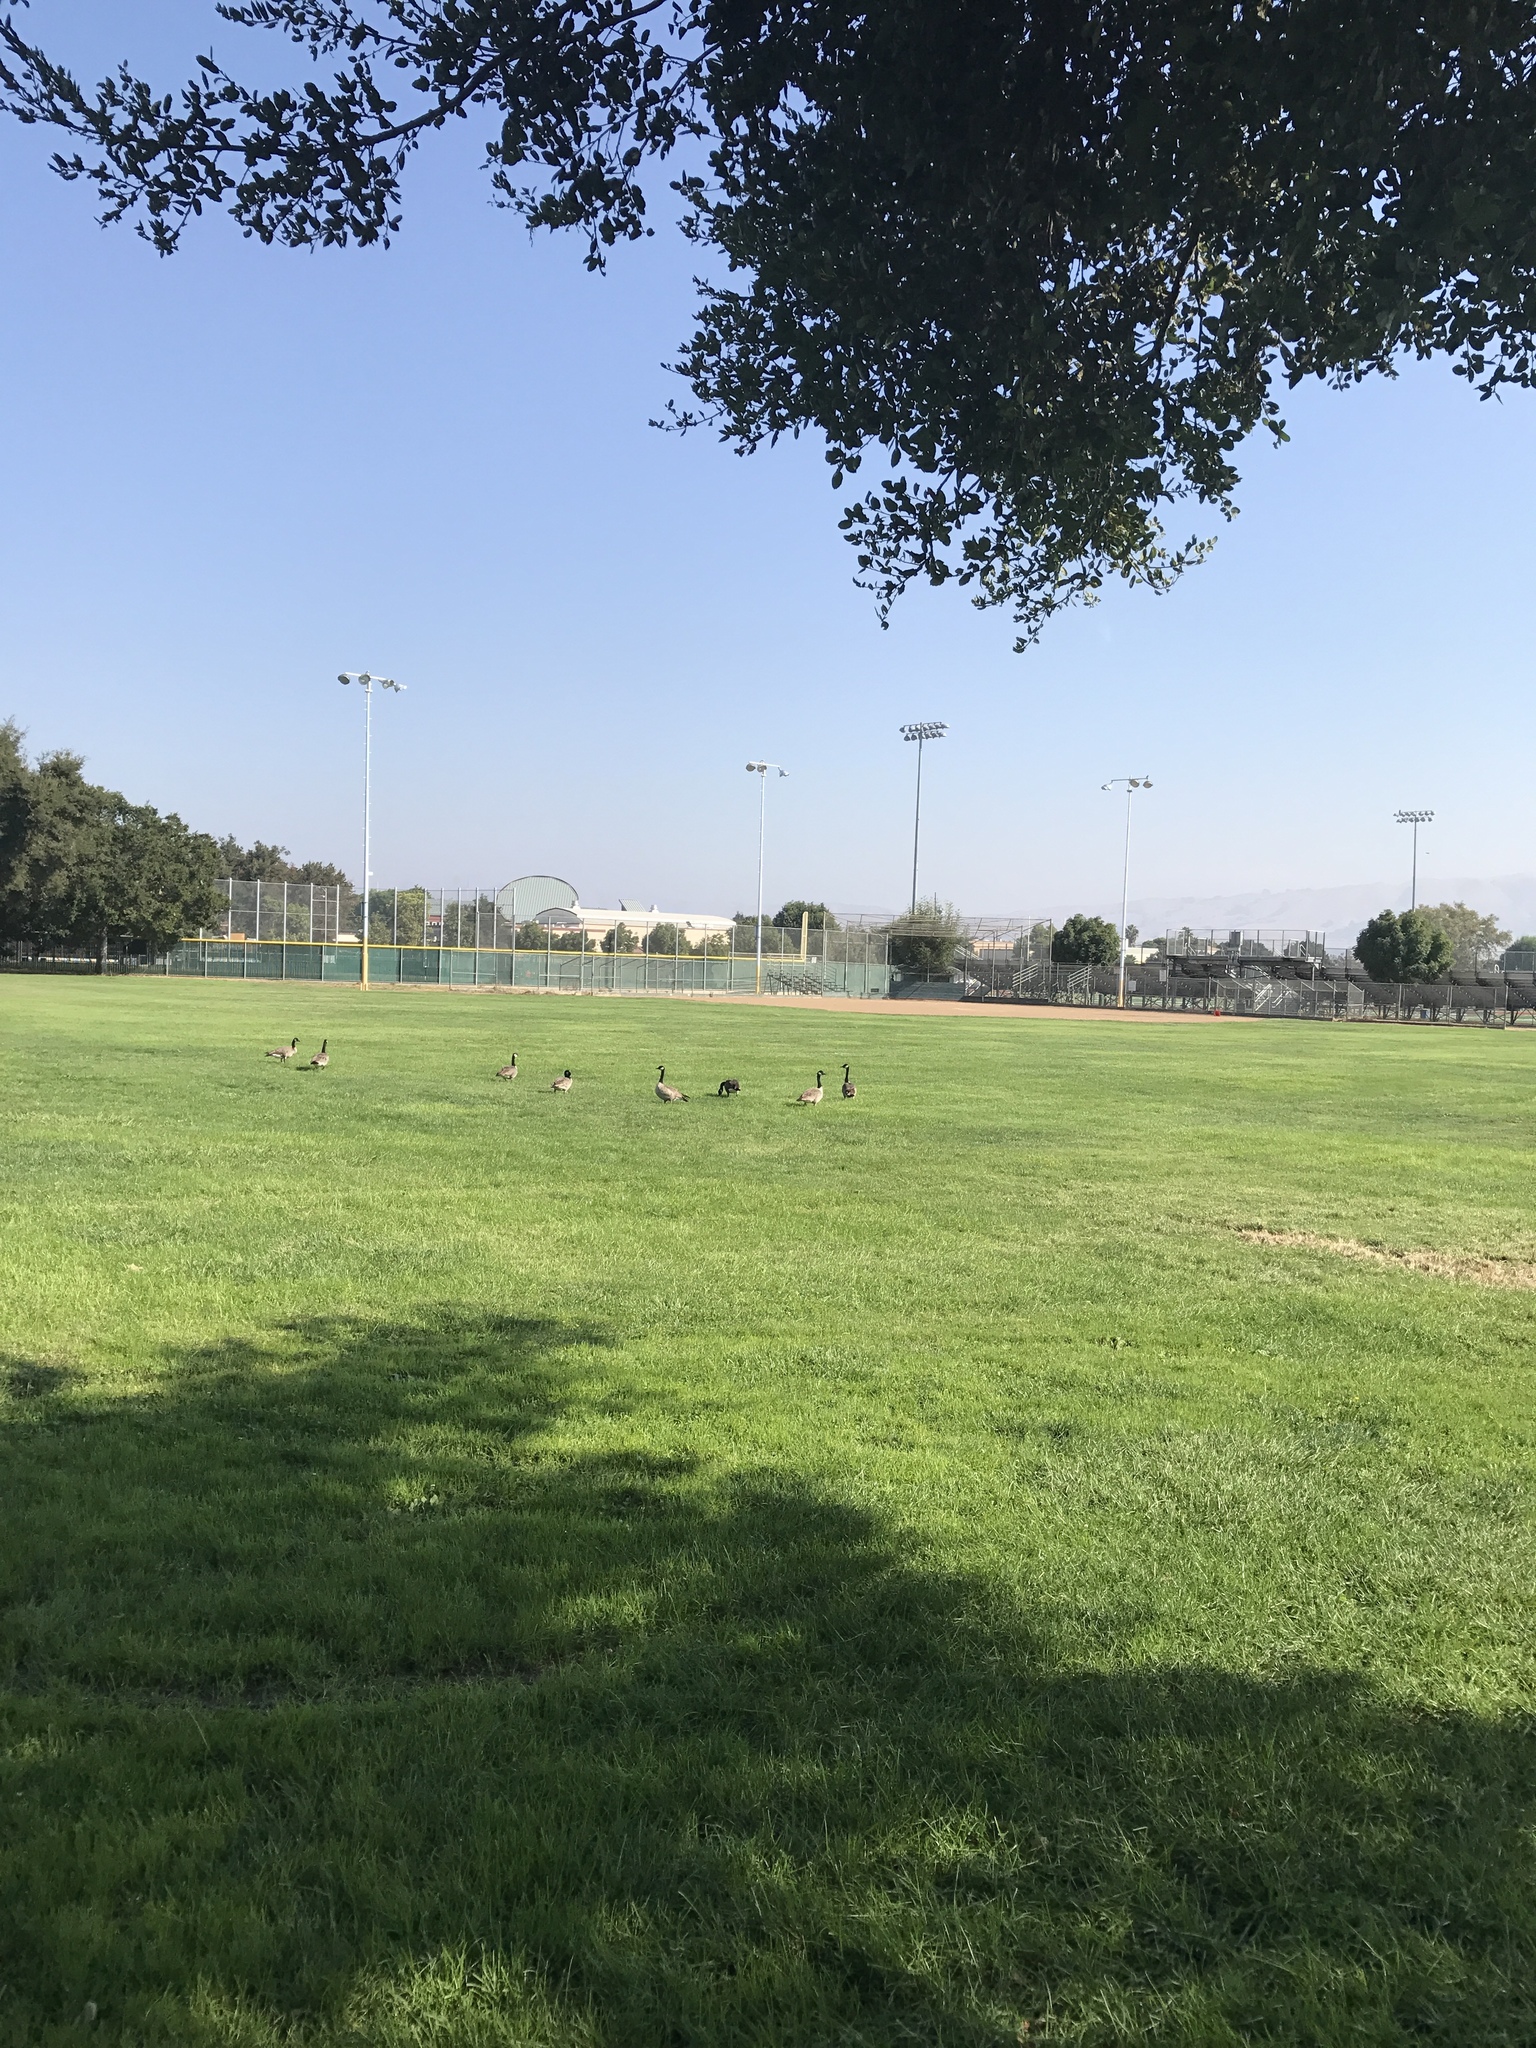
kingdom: Animalia
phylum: Chordata
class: Aves
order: Anseriformes
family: Anatidae
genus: Branta
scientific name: Branta canadensis
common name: Canada goose
